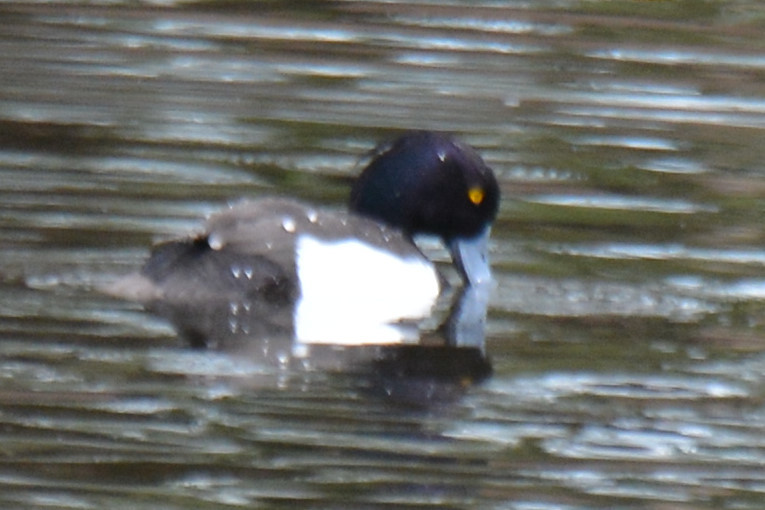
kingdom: Animalia
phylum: Chordata
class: Aves
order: Anseriformes
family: Anatidae
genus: Aythya
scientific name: Aythya fuligula
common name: Tufted duck
